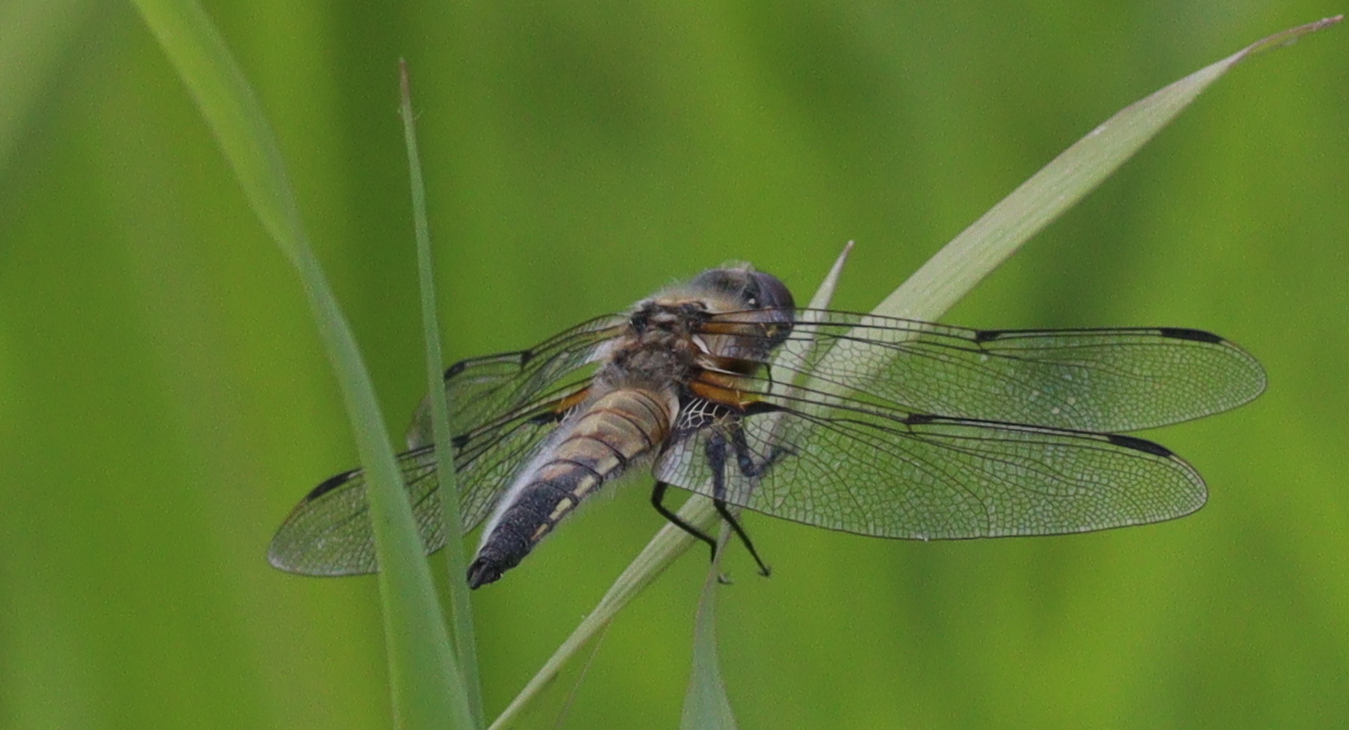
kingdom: Animalia
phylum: Arthropoda
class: Insecta
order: Odonata
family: Libellulidae
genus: Libellula
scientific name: Libellula quadrimaculata
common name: Four-spotted chaser
